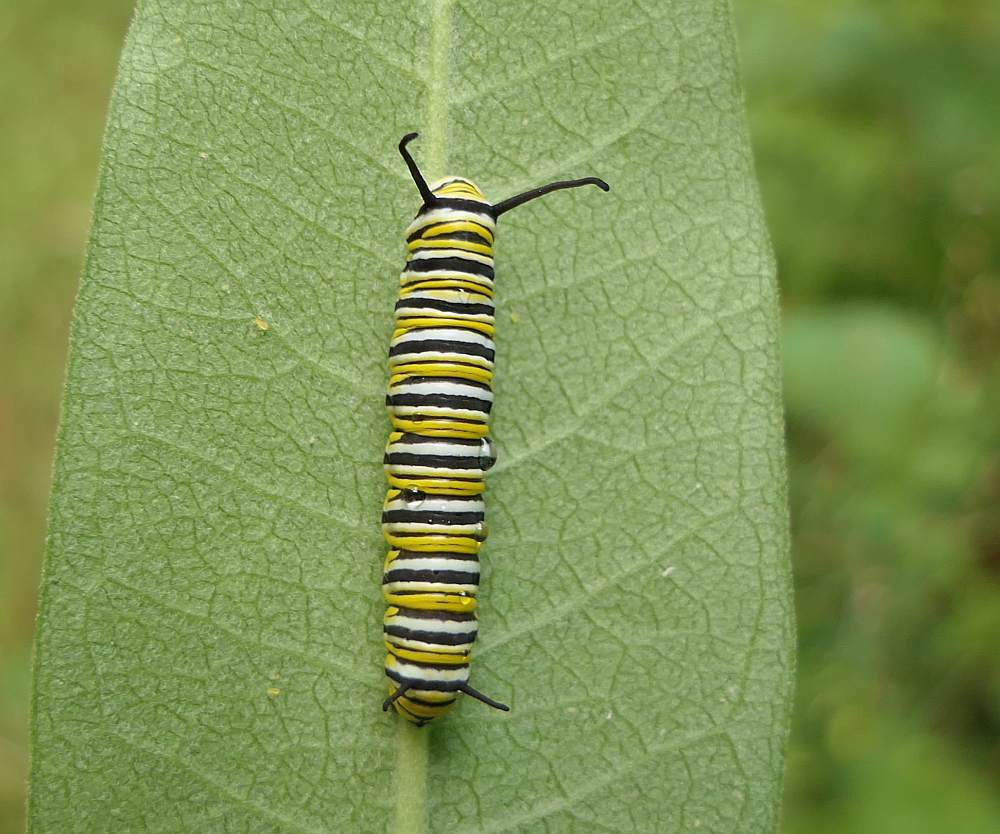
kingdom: Animalia
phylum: Arthropoda
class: Insecta
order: Lepidoptera
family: Nymphalidae
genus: Danaus
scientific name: Danaus plexippus
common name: Monarch
